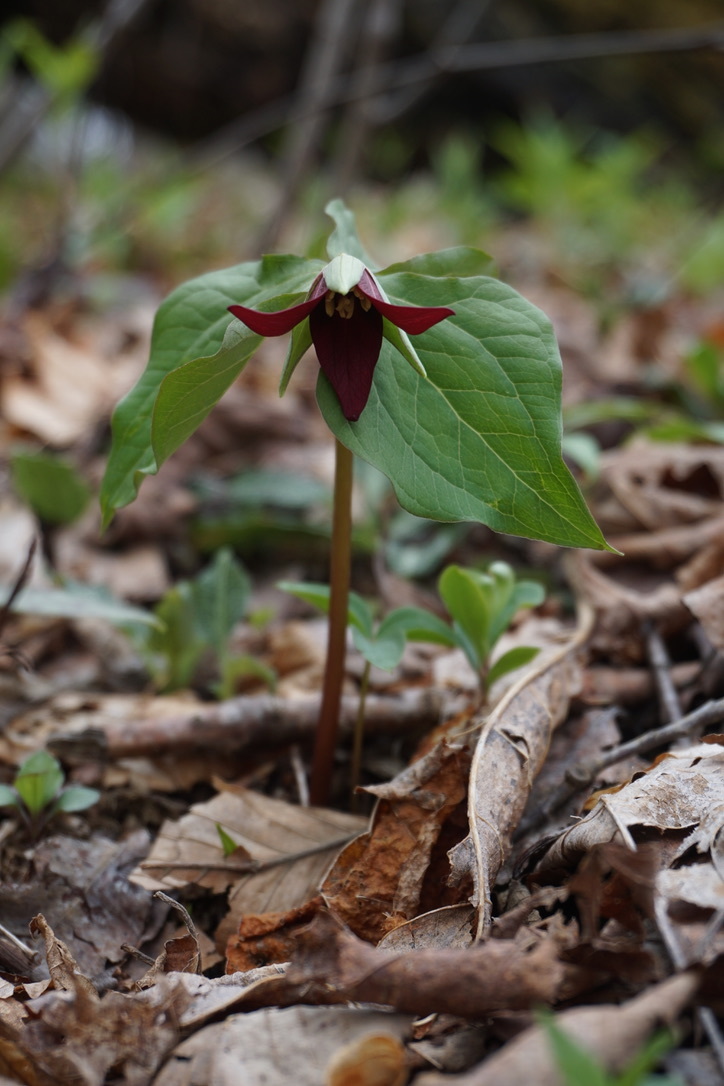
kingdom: Plantae
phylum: Tracheophyta
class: Liliopsida
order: Liliales
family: Melanthiaceae
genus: Trillium
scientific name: Trillium erectum
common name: Purple trillium
